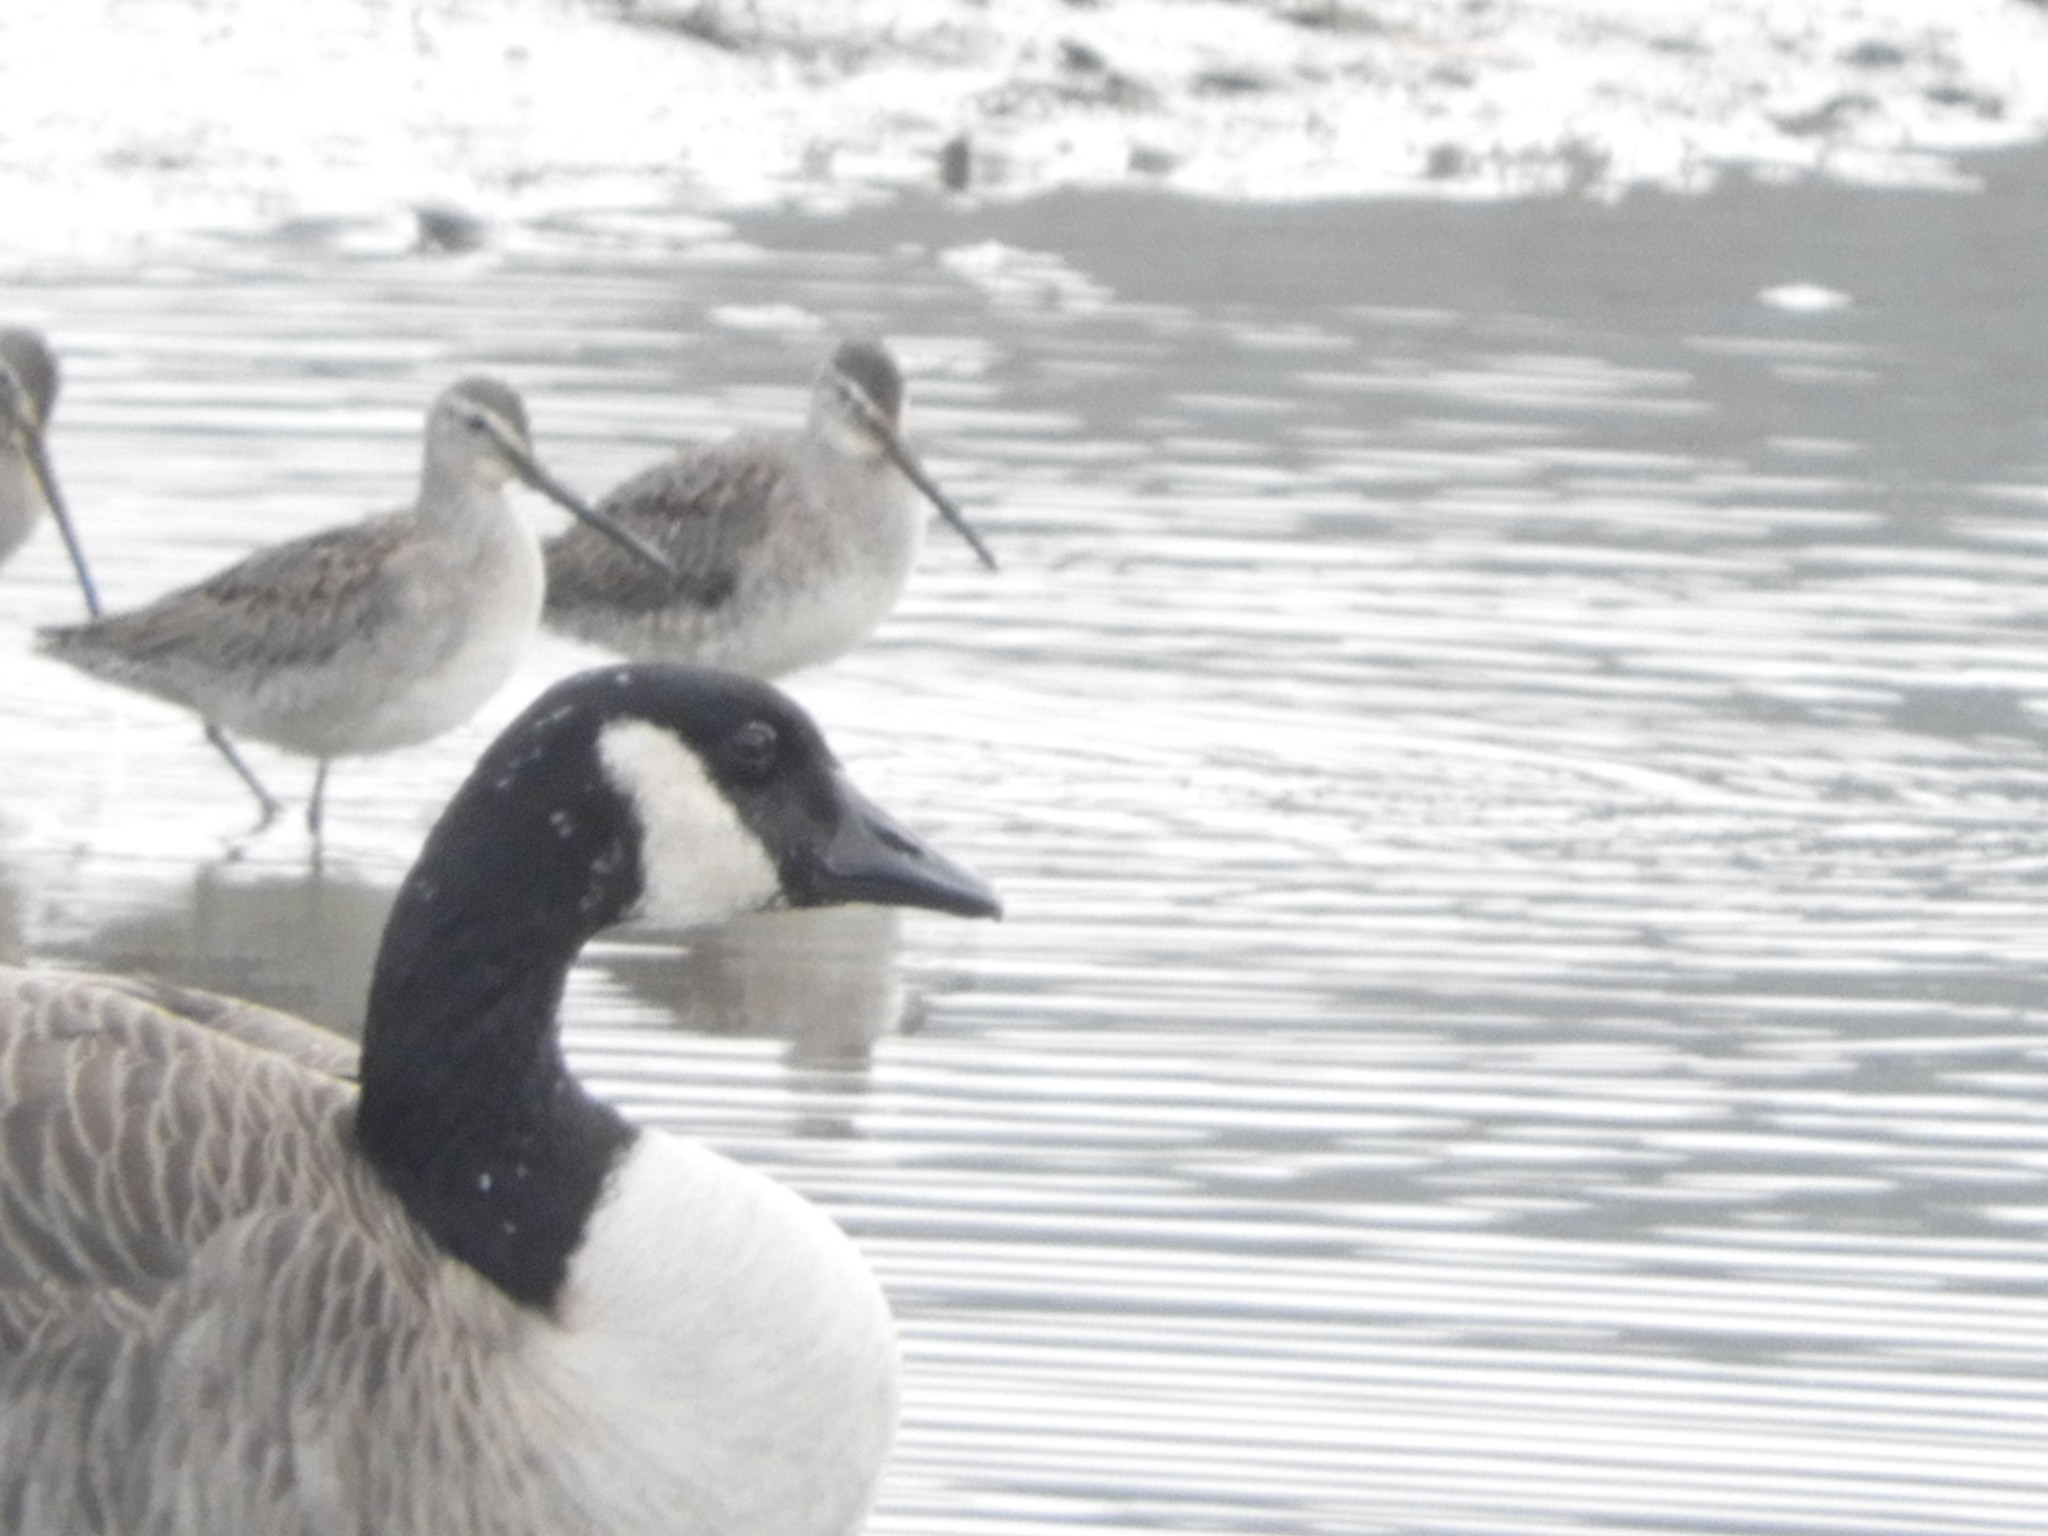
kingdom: Animalia
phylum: Chordata
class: Aves
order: Charadriiformes
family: Scolopacidae
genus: Limnodromus
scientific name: Limnodromus scolopaceus
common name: Long-billed dowitcher
